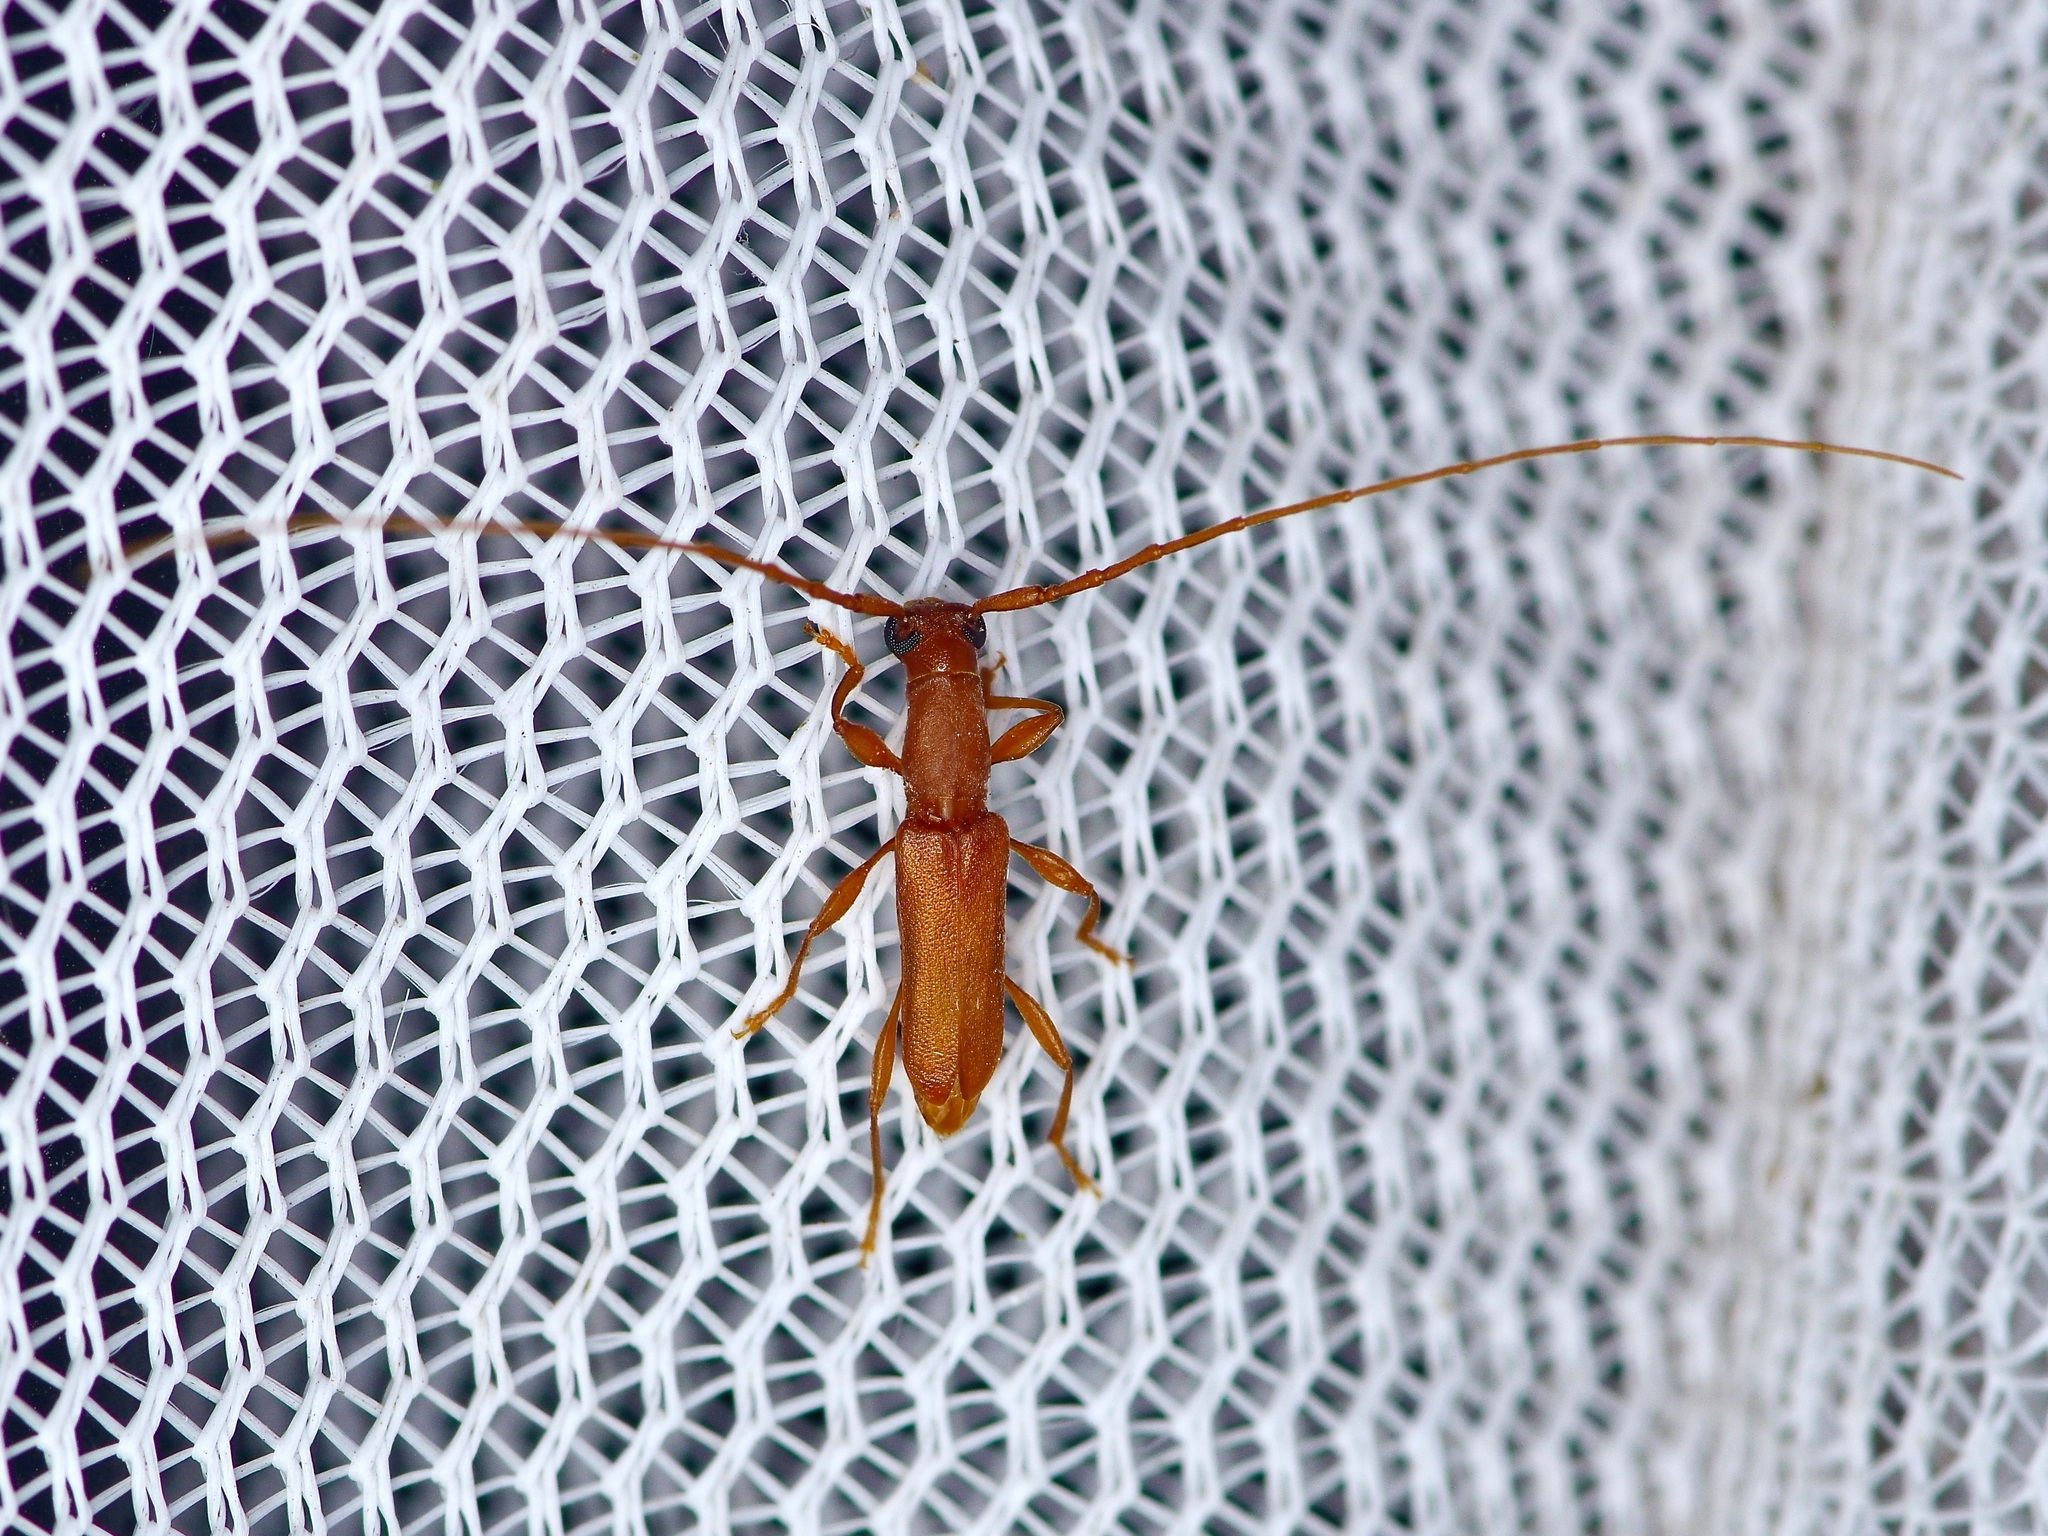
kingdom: Animalia
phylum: Arthropoda
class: Insecta
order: Coleoptera
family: Cerambycidae
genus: Hypexilis
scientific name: Hypexilis pallida
